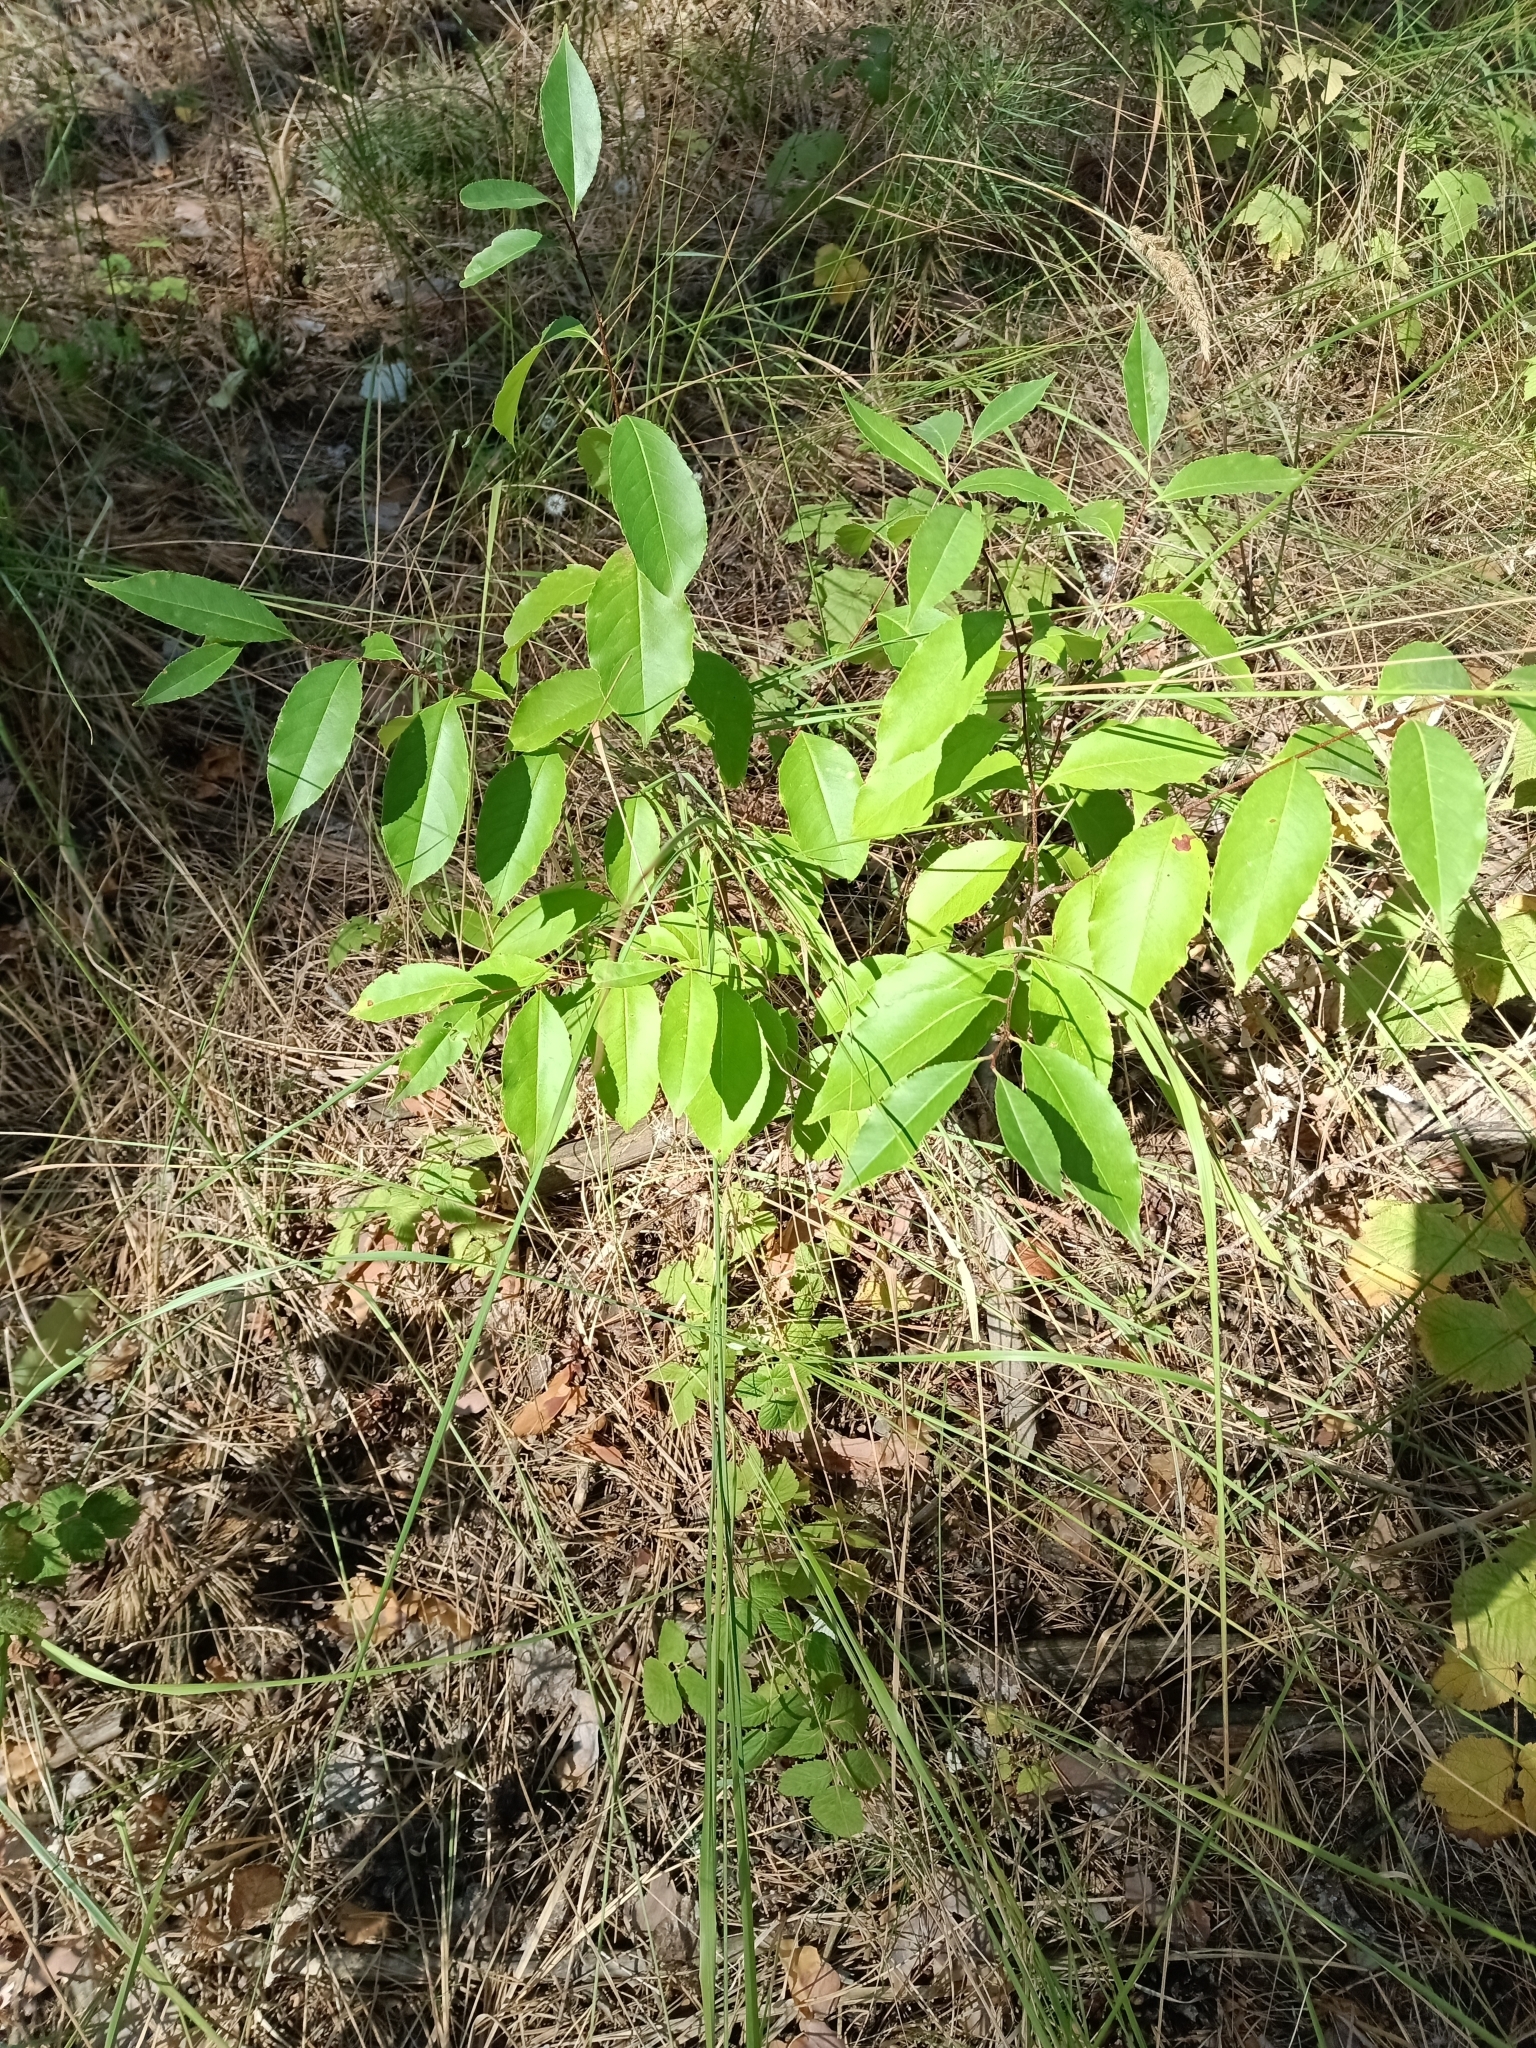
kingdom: Plantae
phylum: Tracheophyta
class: Magnoliopsida
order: Rosales
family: Rosaceae
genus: Prunus
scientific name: Prunus serotina
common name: Black cherry
